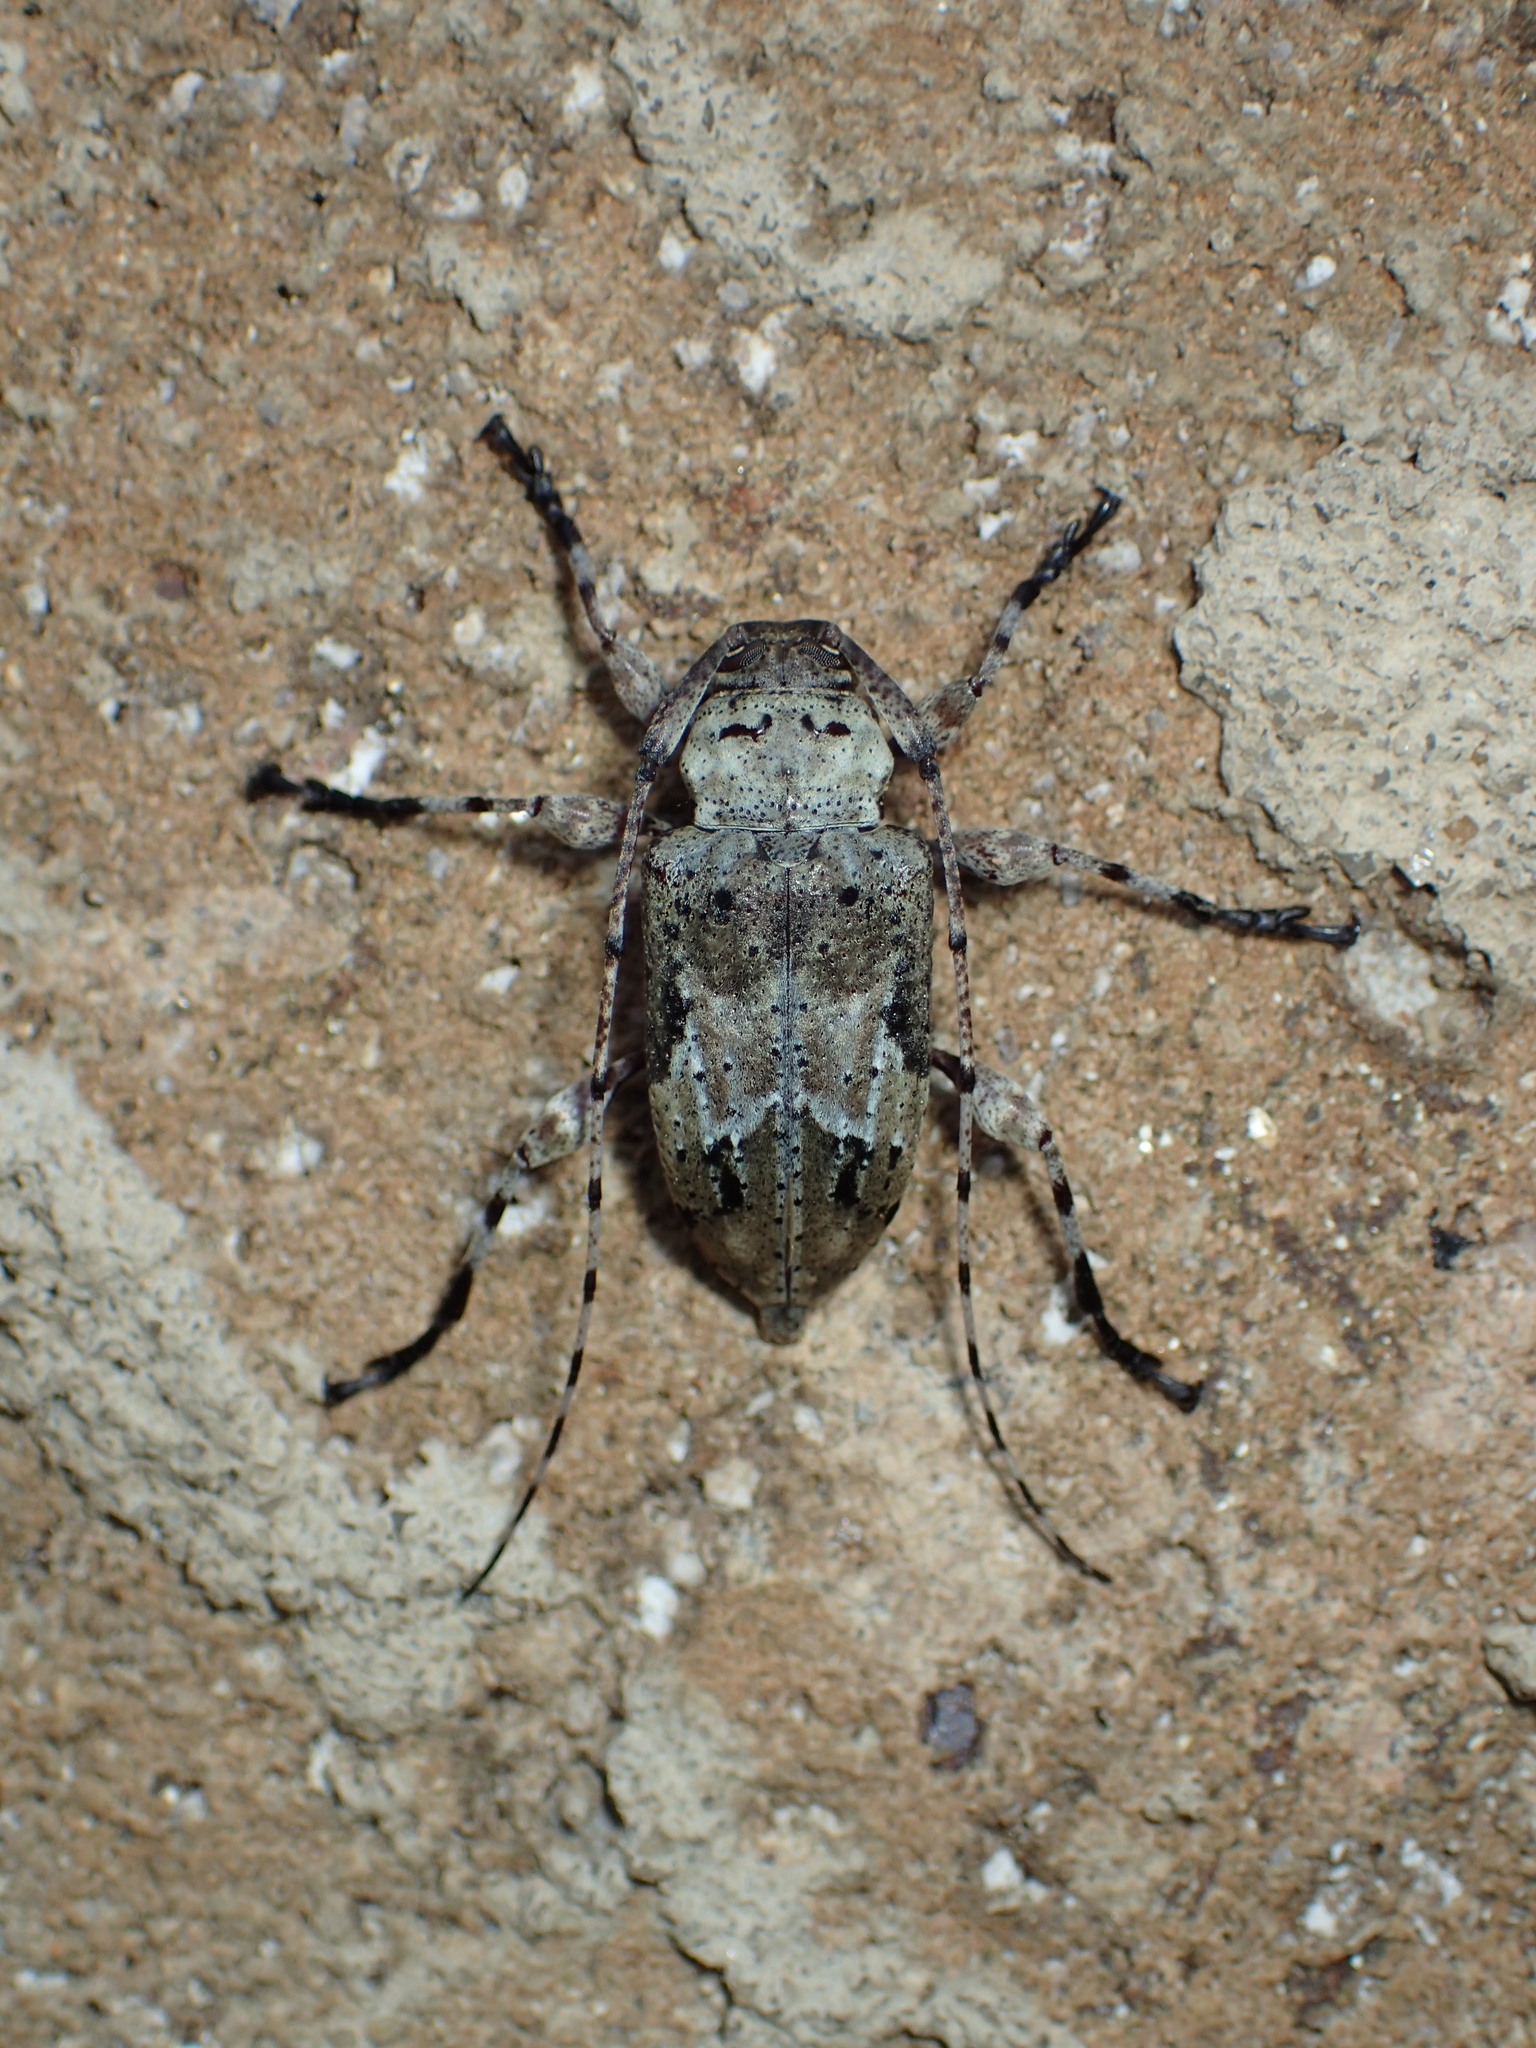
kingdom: Animalia
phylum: Arthropoda
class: Insecta
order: Coleoptera
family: Cerambycidae
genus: Leptostylopsis
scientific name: Leptostylopsis planidorsus
